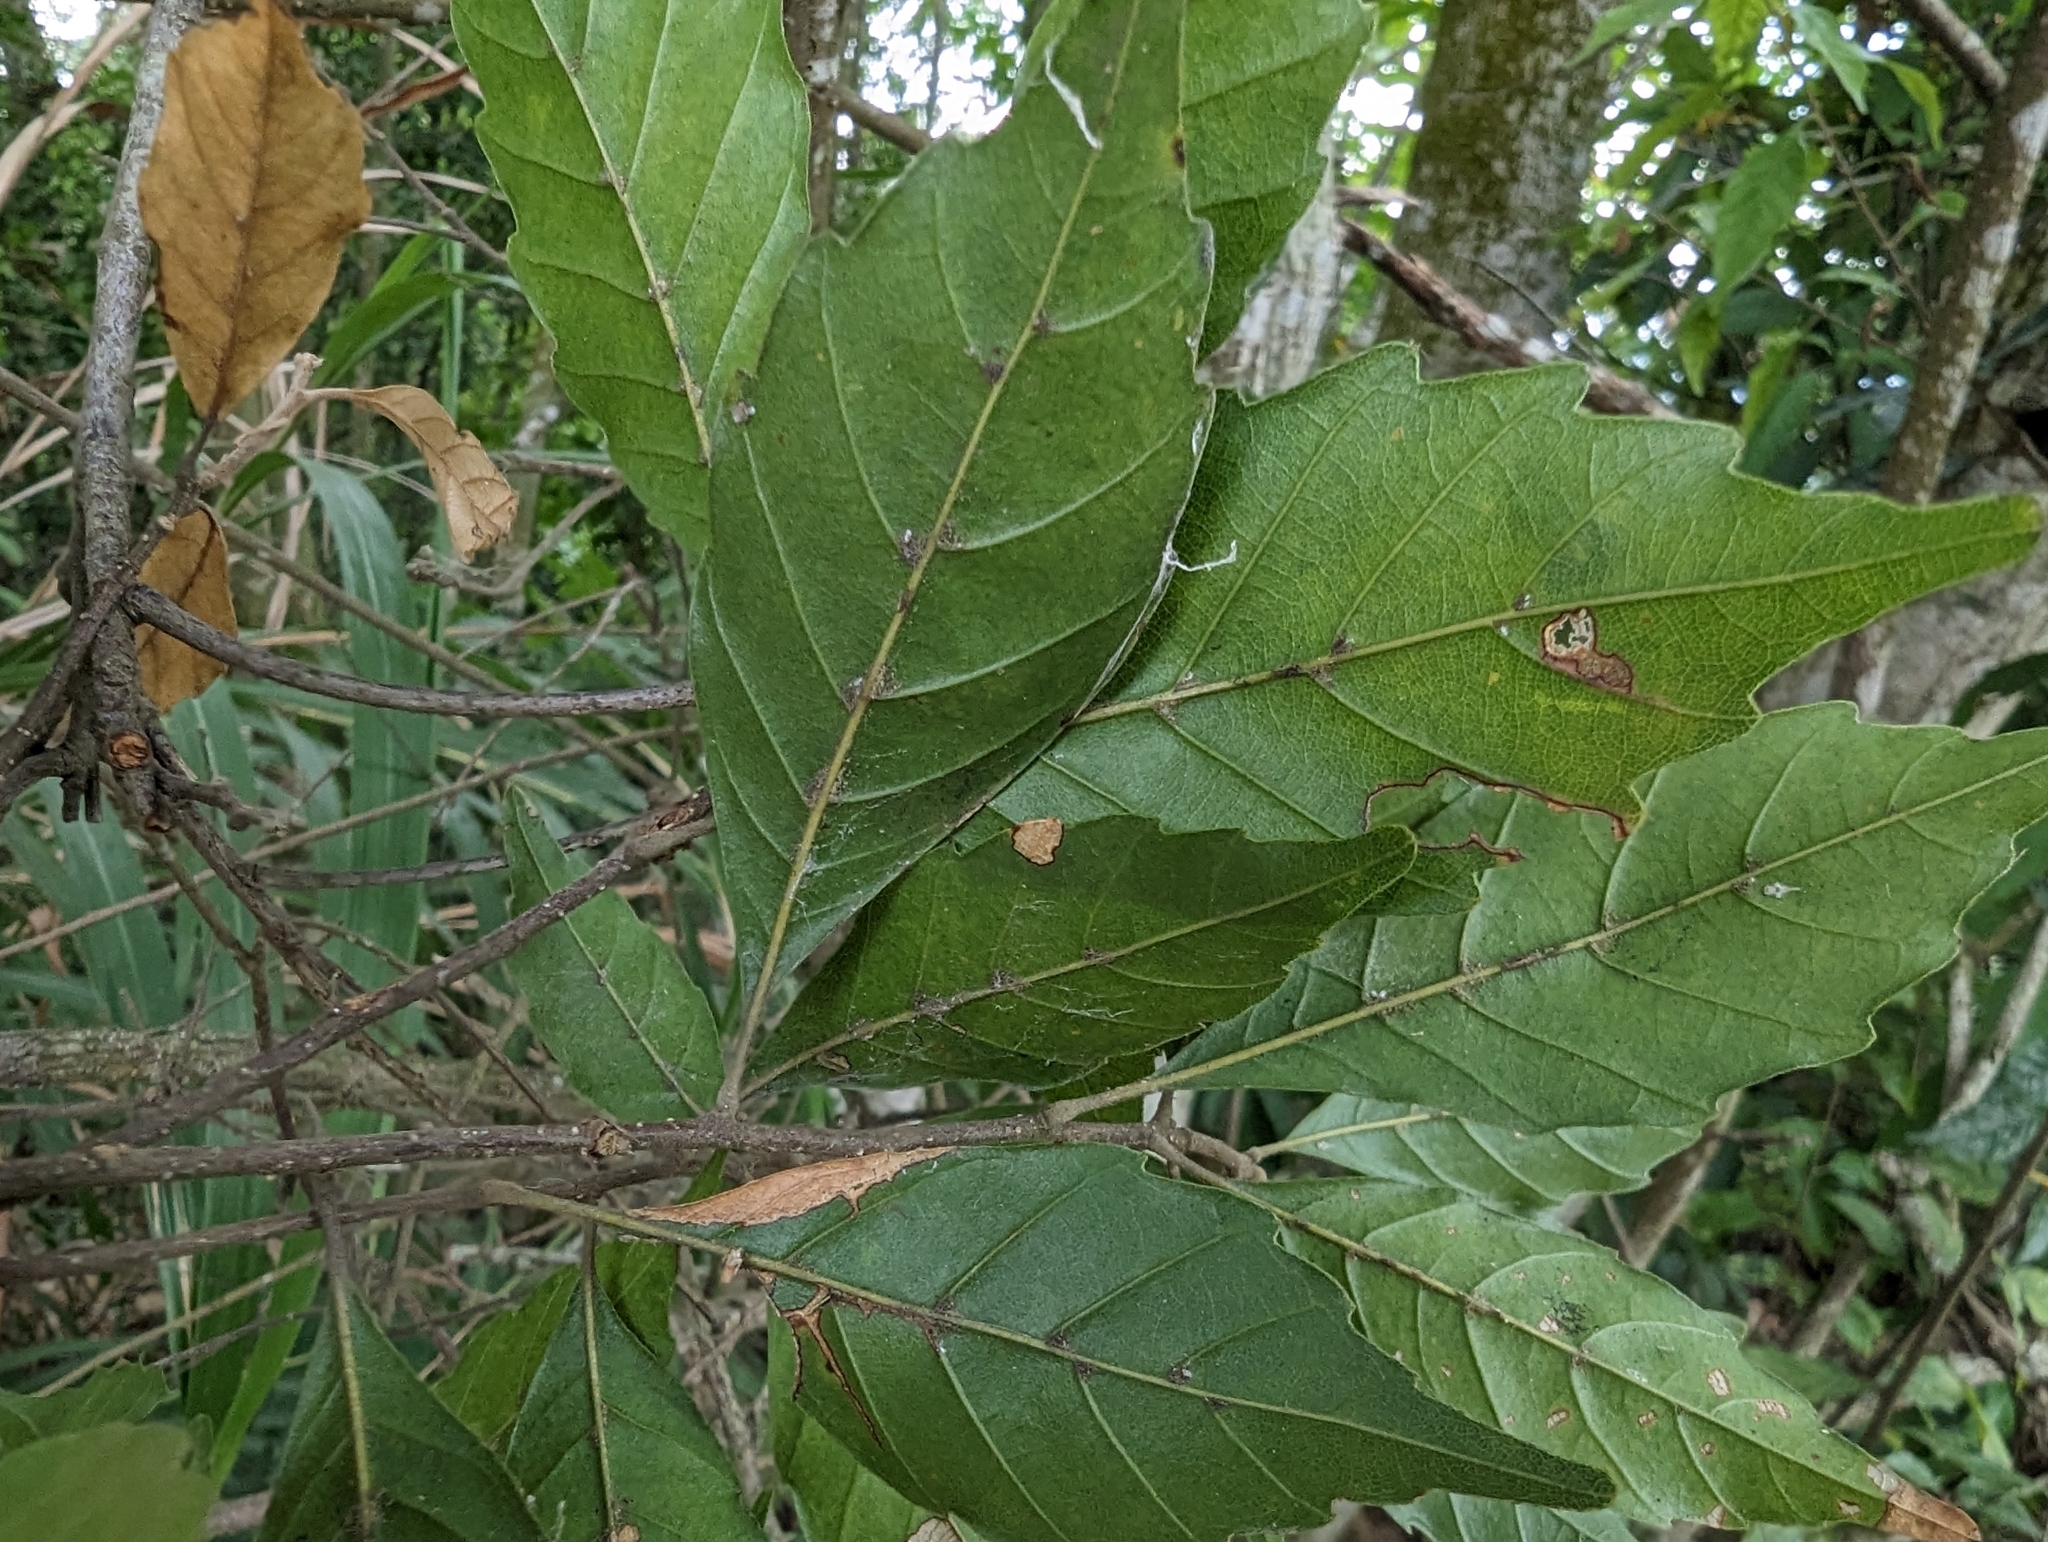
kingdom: Plantae
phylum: Tracheophyta
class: Magnoliopsida
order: Fagales
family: Fagaceae
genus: Lithocarpus
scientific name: Lithocarpus konishii
